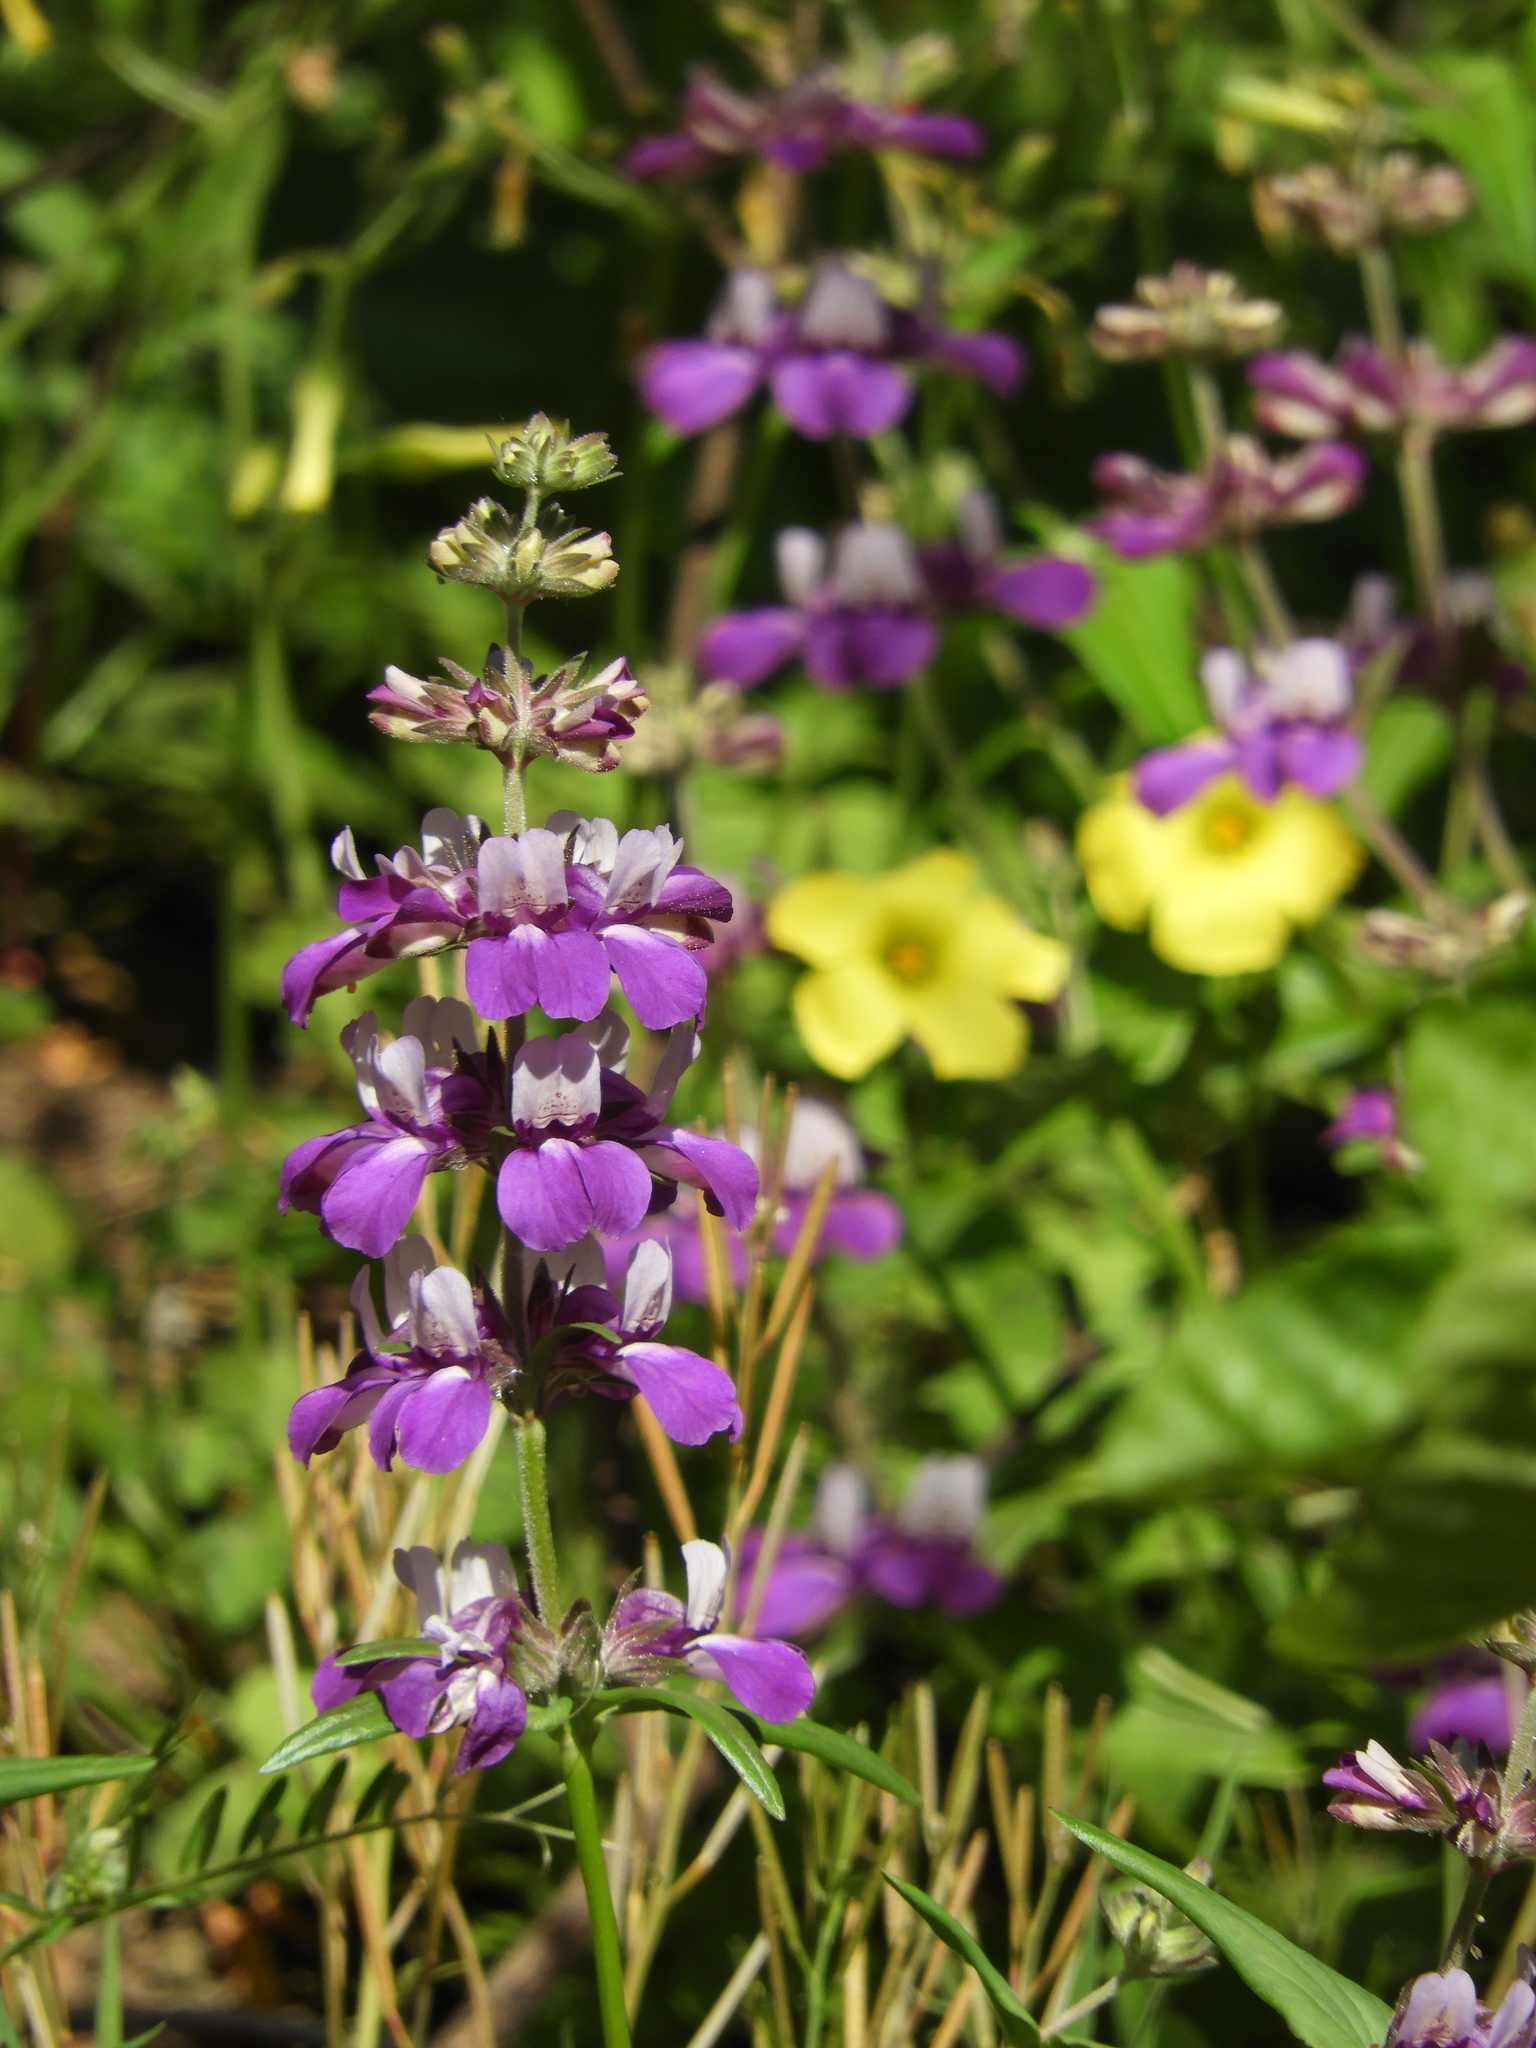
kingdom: Plantae
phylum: Tracheophyta
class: Magnoliopsida
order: Lamiales
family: Plantaginaceae
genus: Collinsia
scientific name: Collinsia heterophylla
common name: Chinese-houses
